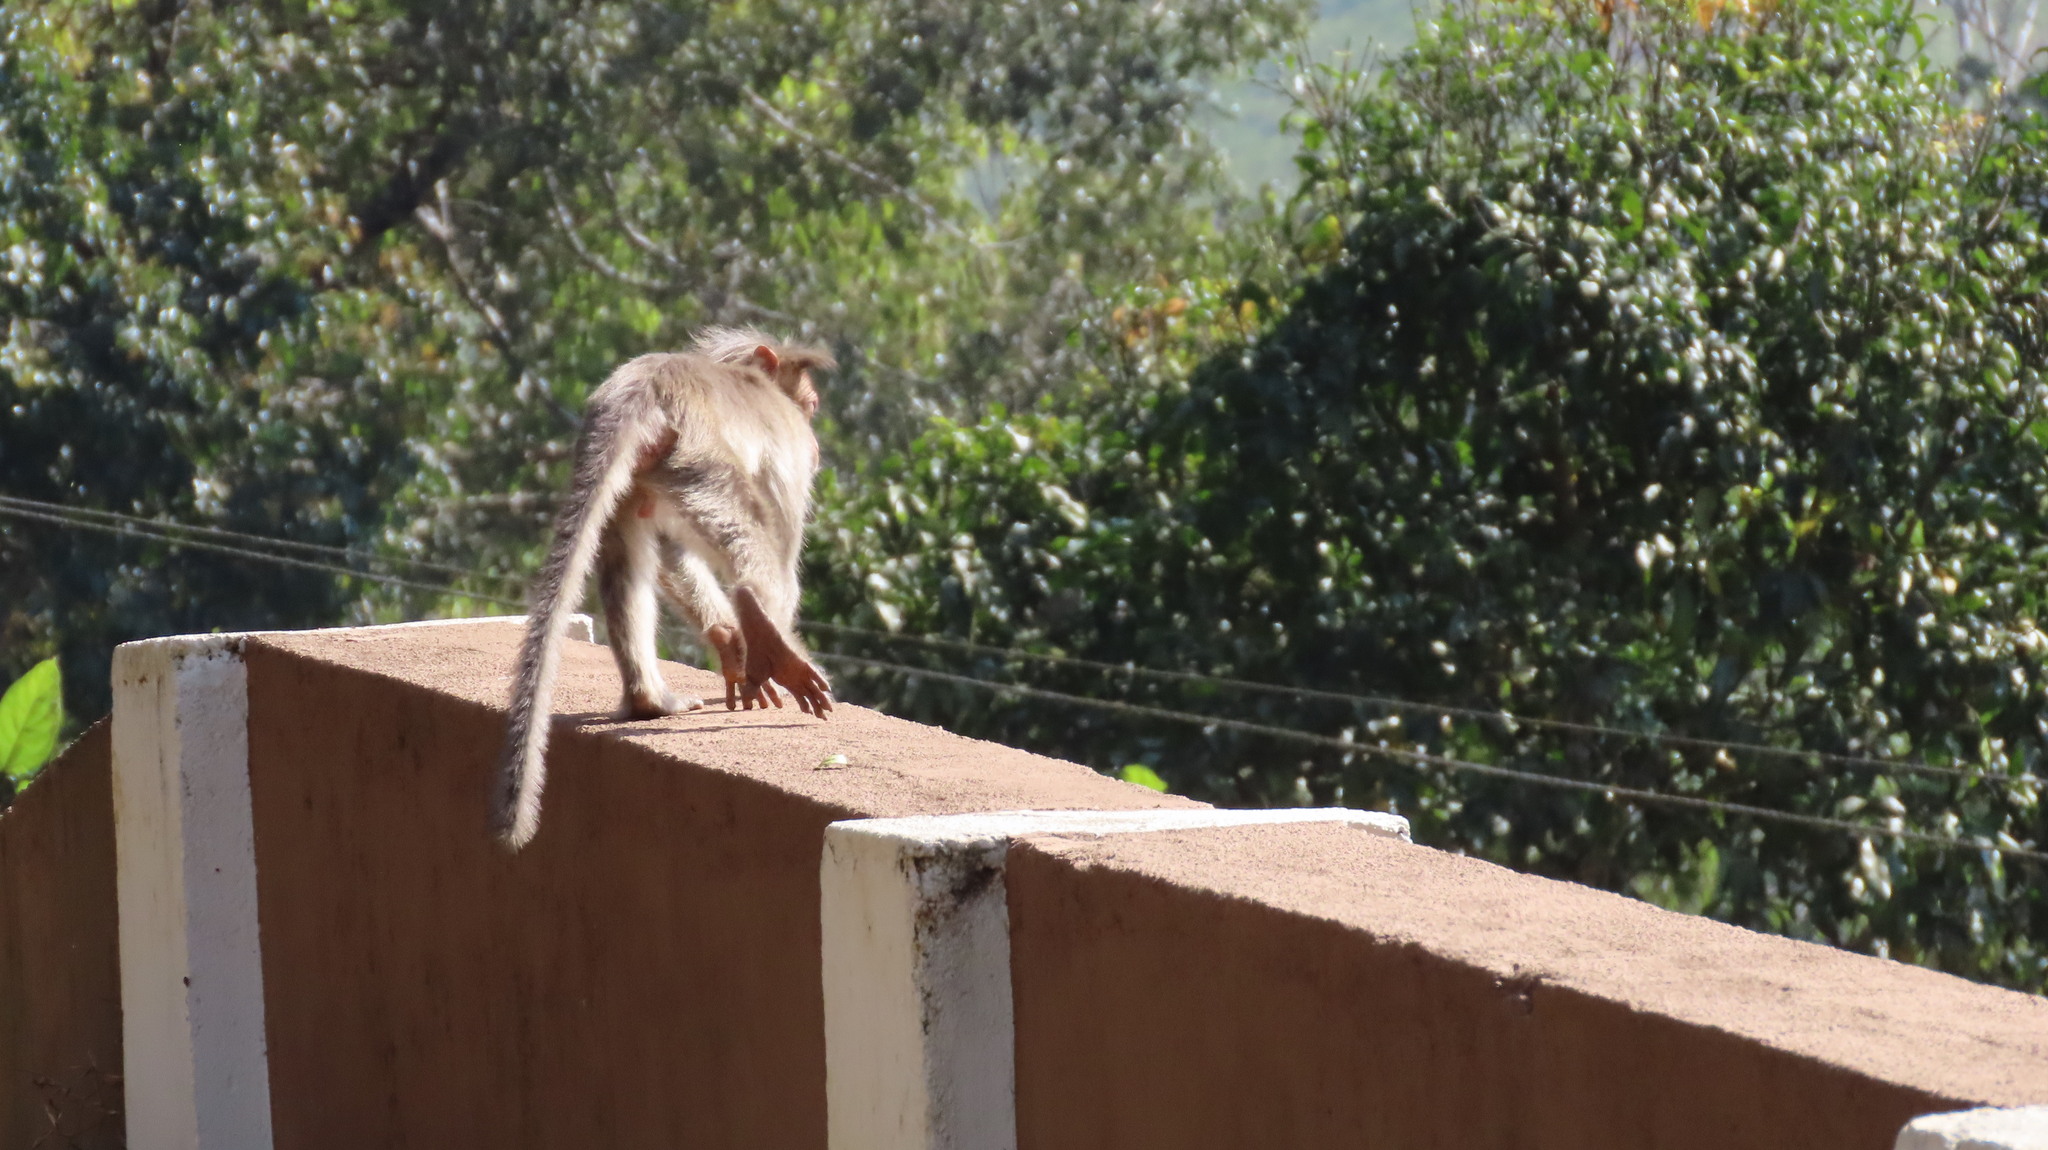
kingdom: Animalia
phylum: Chordata
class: Mammalia
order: Primates
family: Cercopithecidae
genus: Macaca
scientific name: Macaca radiata
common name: Bonnet macaque
